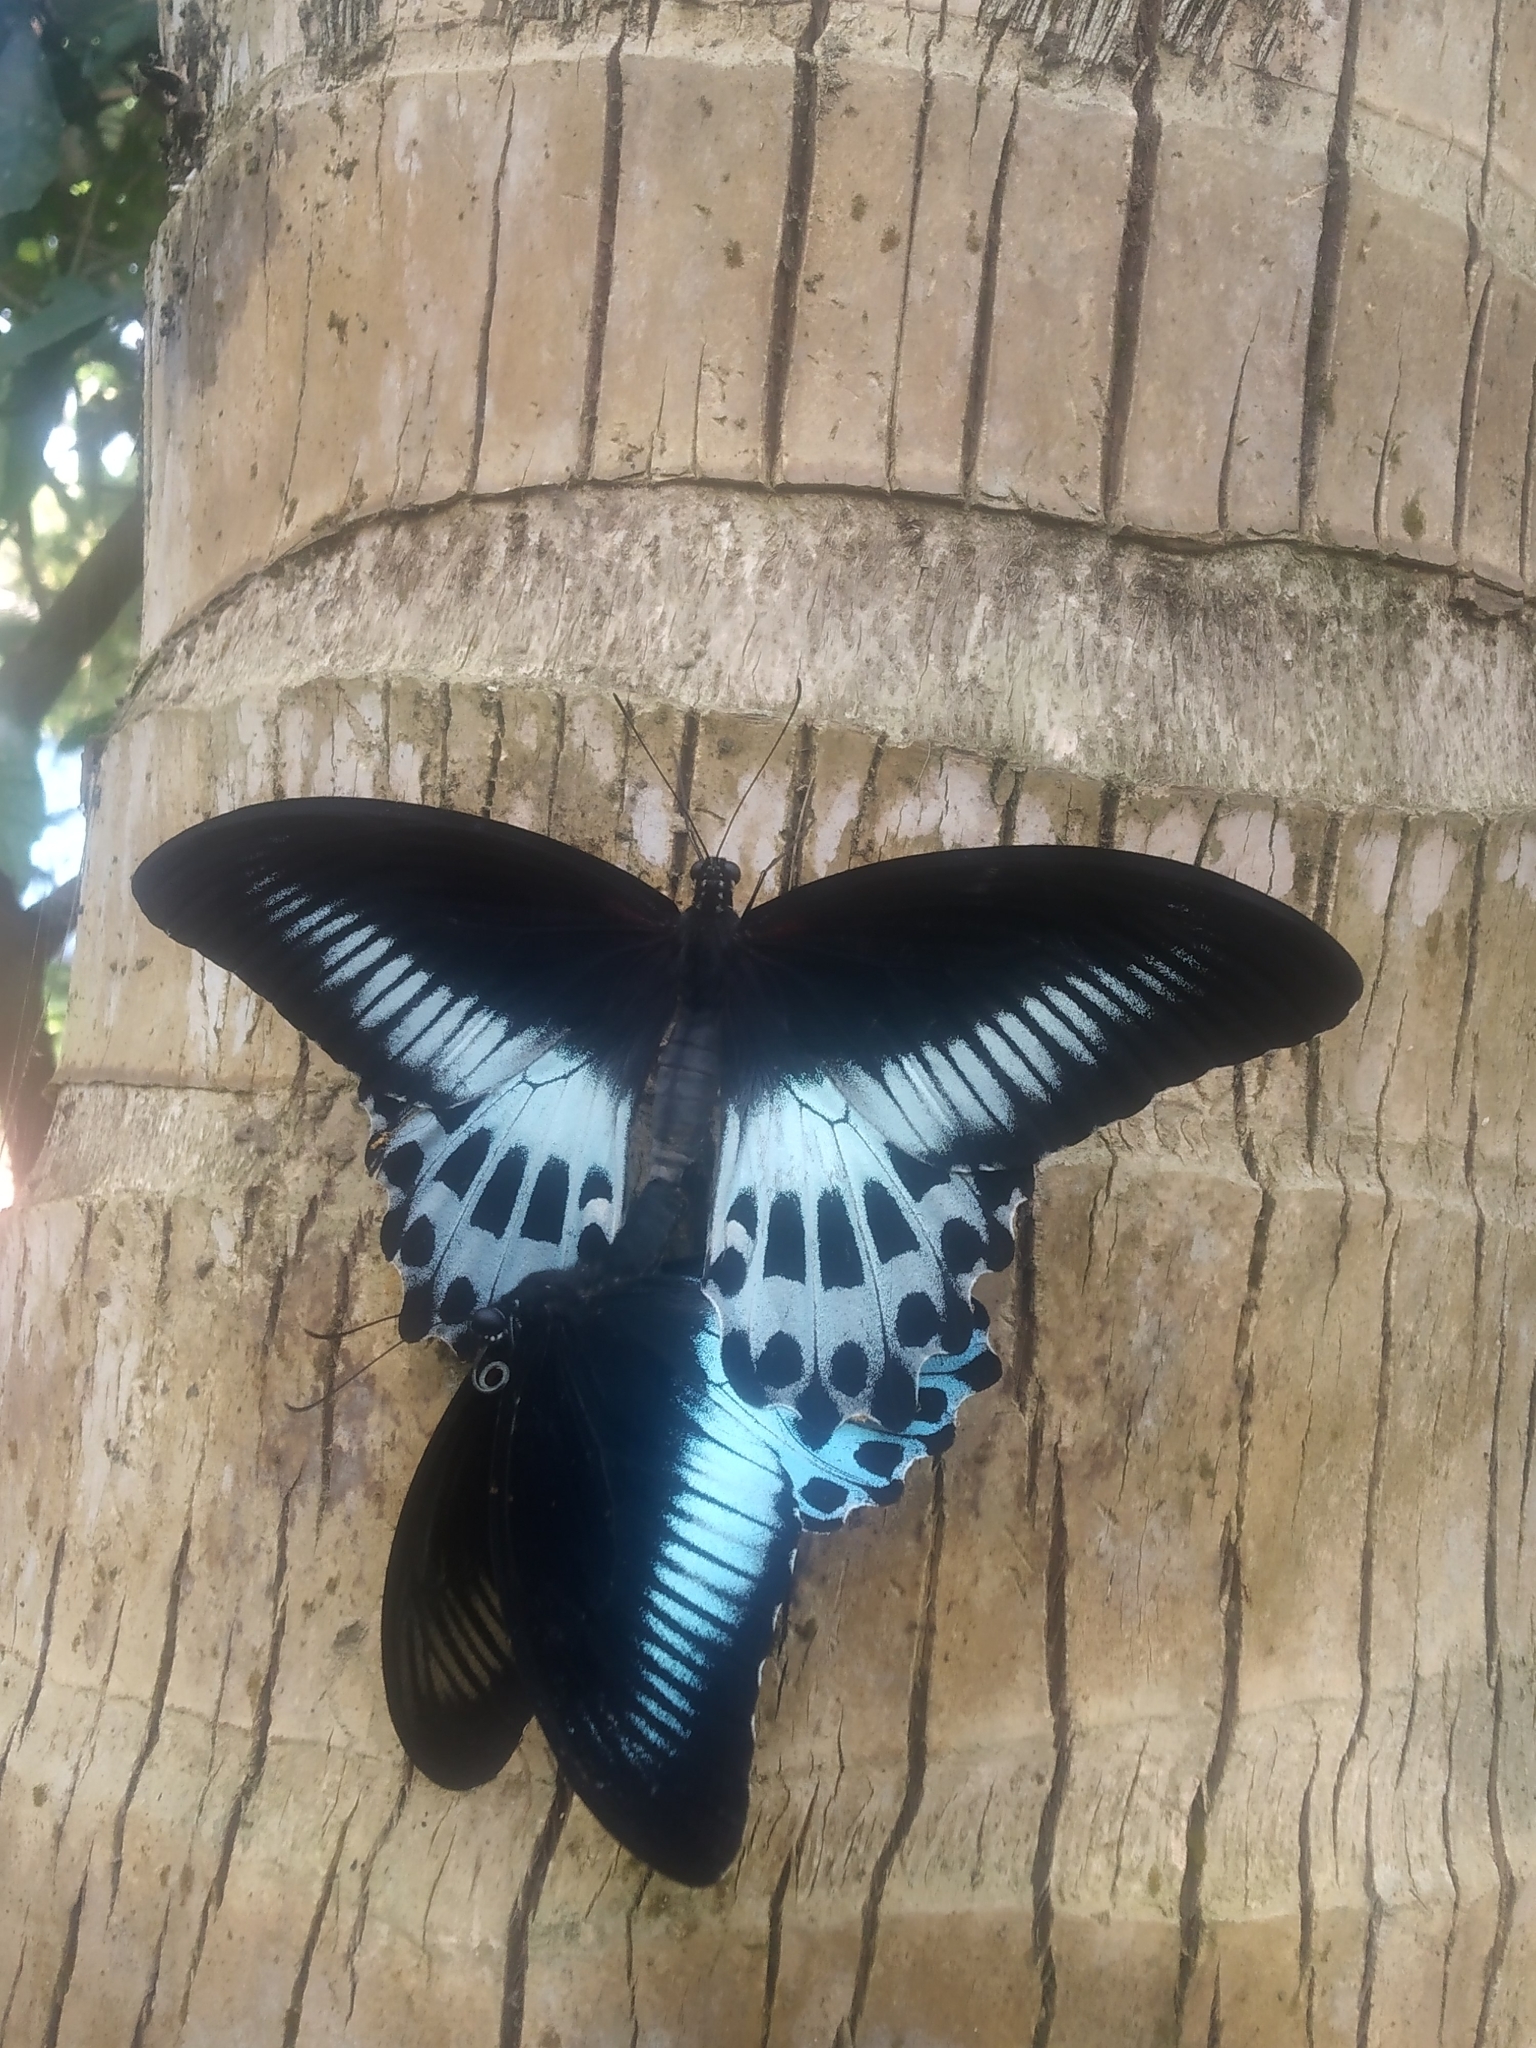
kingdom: Animalia
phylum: Arthropoda
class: Insecta
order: Lepidoptera
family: Papilionidae
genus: Papilio
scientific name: Papilio memnon
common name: Great mormon
